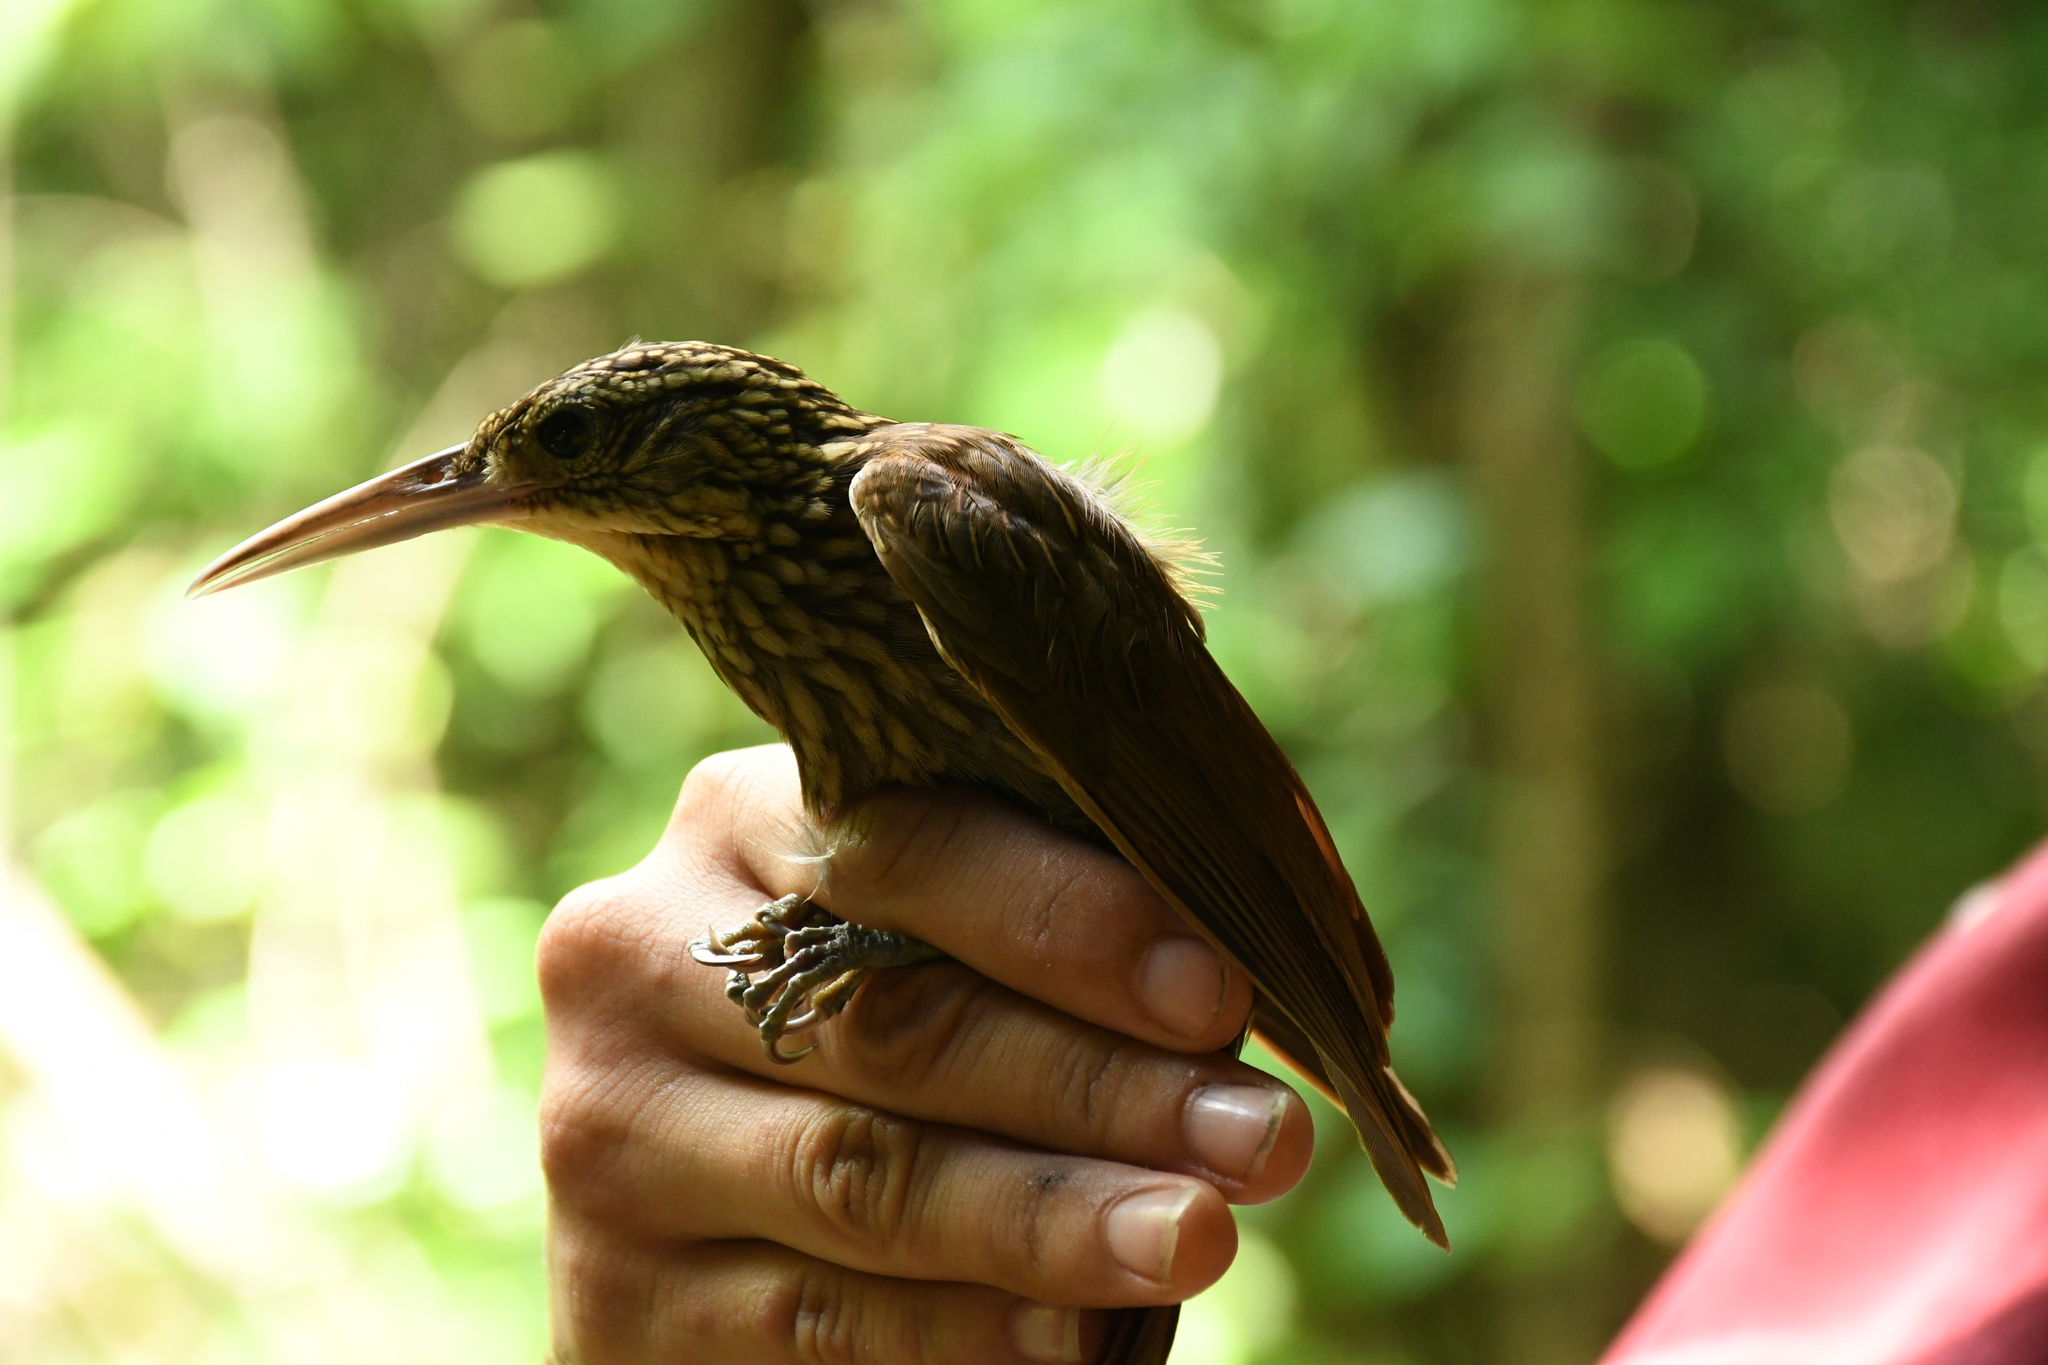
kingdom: Animalia
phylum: Chordata
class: Aves
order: Passeriformes
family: Furnariidae
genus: Xiphorhynchus
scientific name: Xiphorhynchus flavigaster
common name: Ivory-billed woodcreeper
